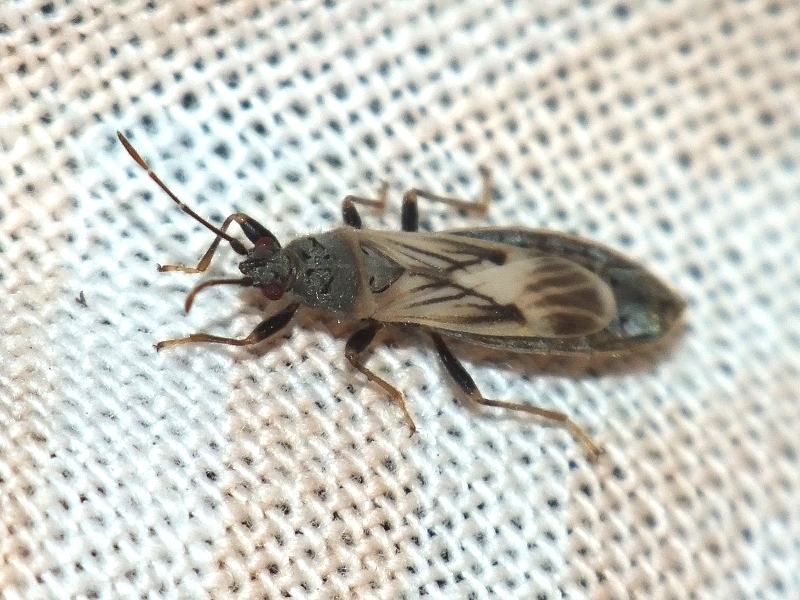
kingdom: Animalia
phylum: Arthropoda
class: Insecta
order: Hemiptera
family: Blissidae
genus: Ischnodemus
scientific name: Ischnodemus caspius
